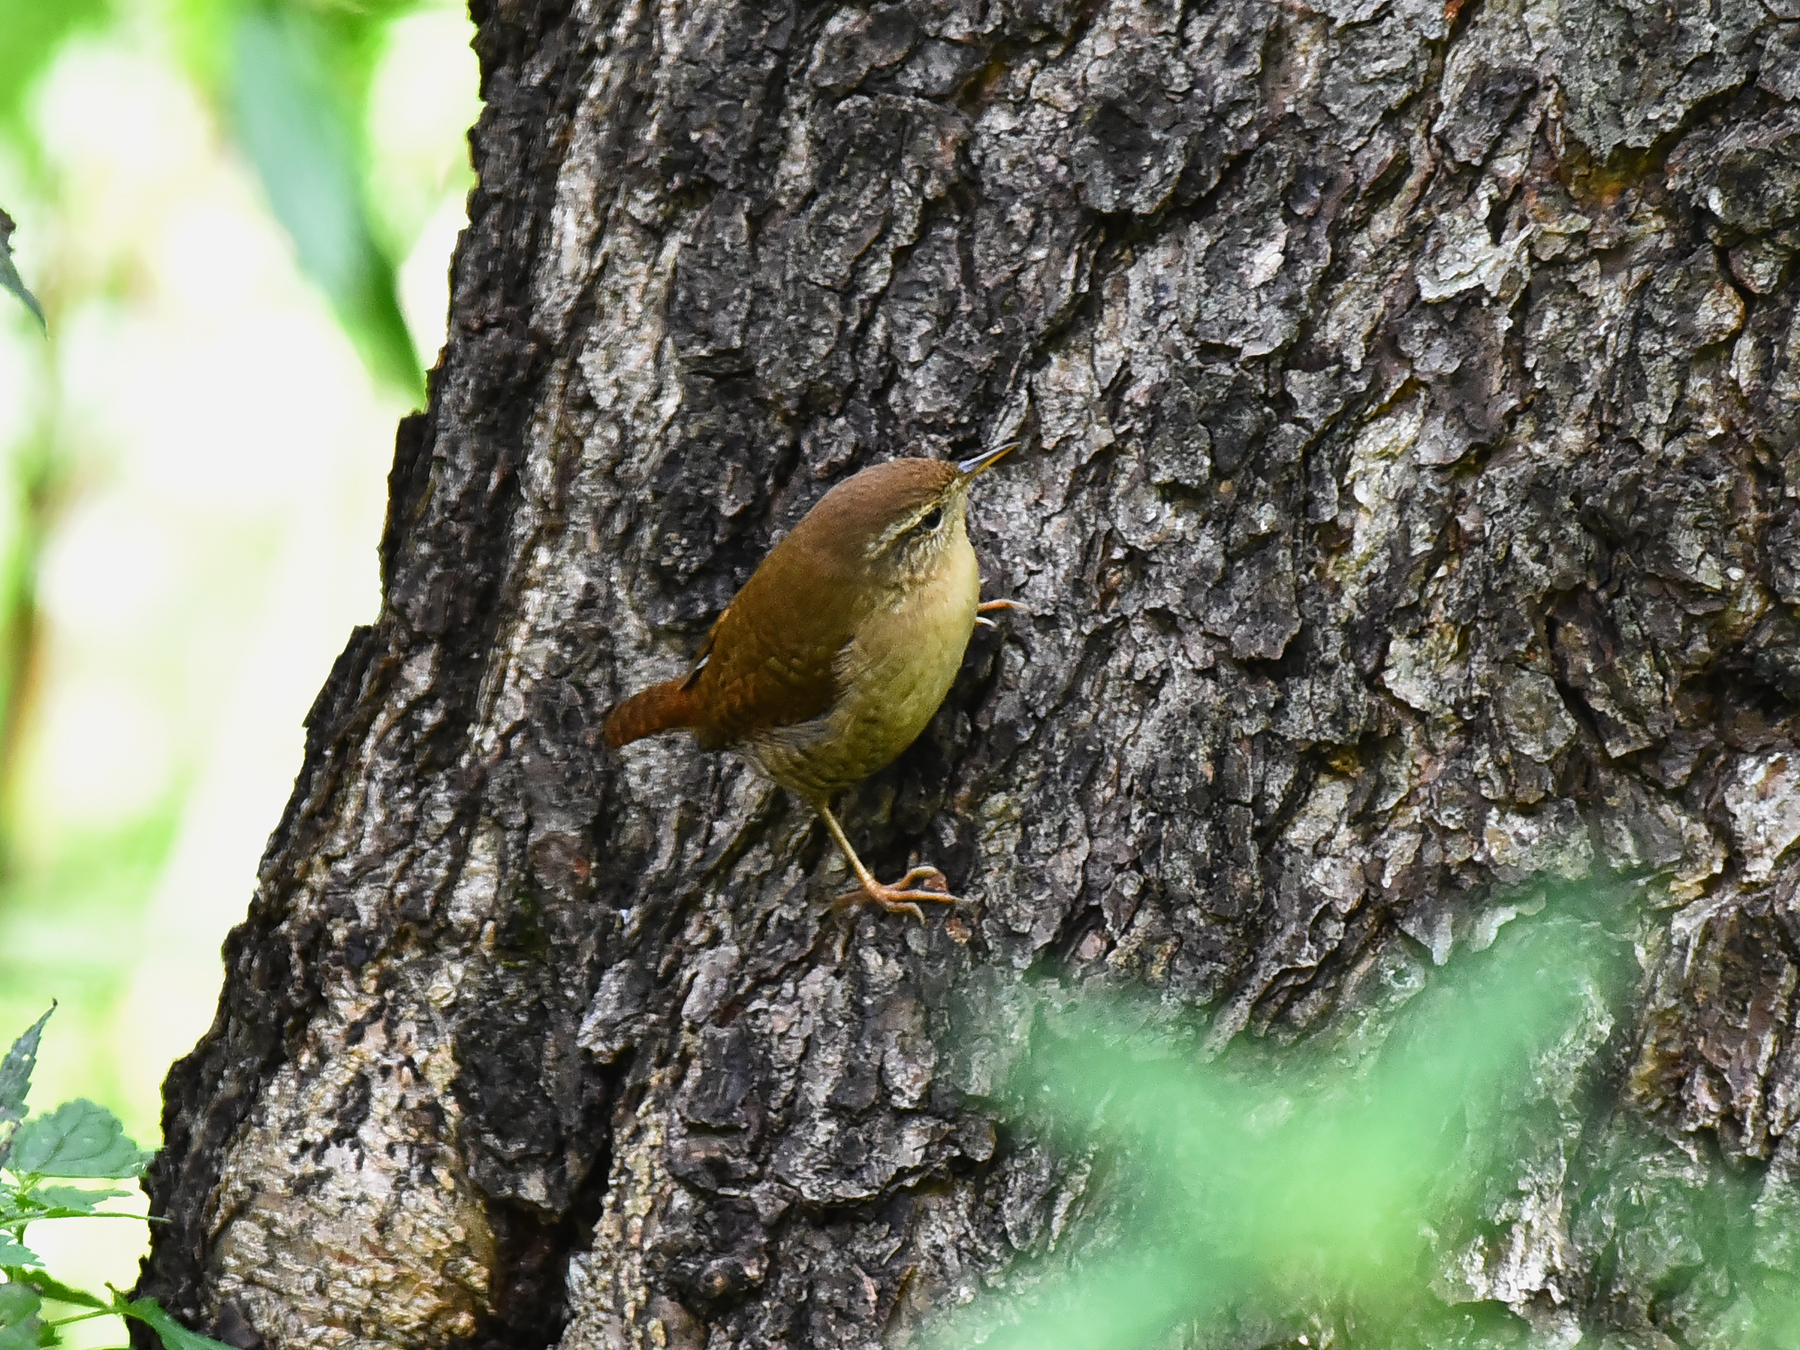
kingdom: Animalia
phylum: Chordata
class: Aves
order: Passeriformes
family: Troglodytidae
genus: Troglodytes
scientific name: Troglodytes troglodytes
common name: Eurasian wren
